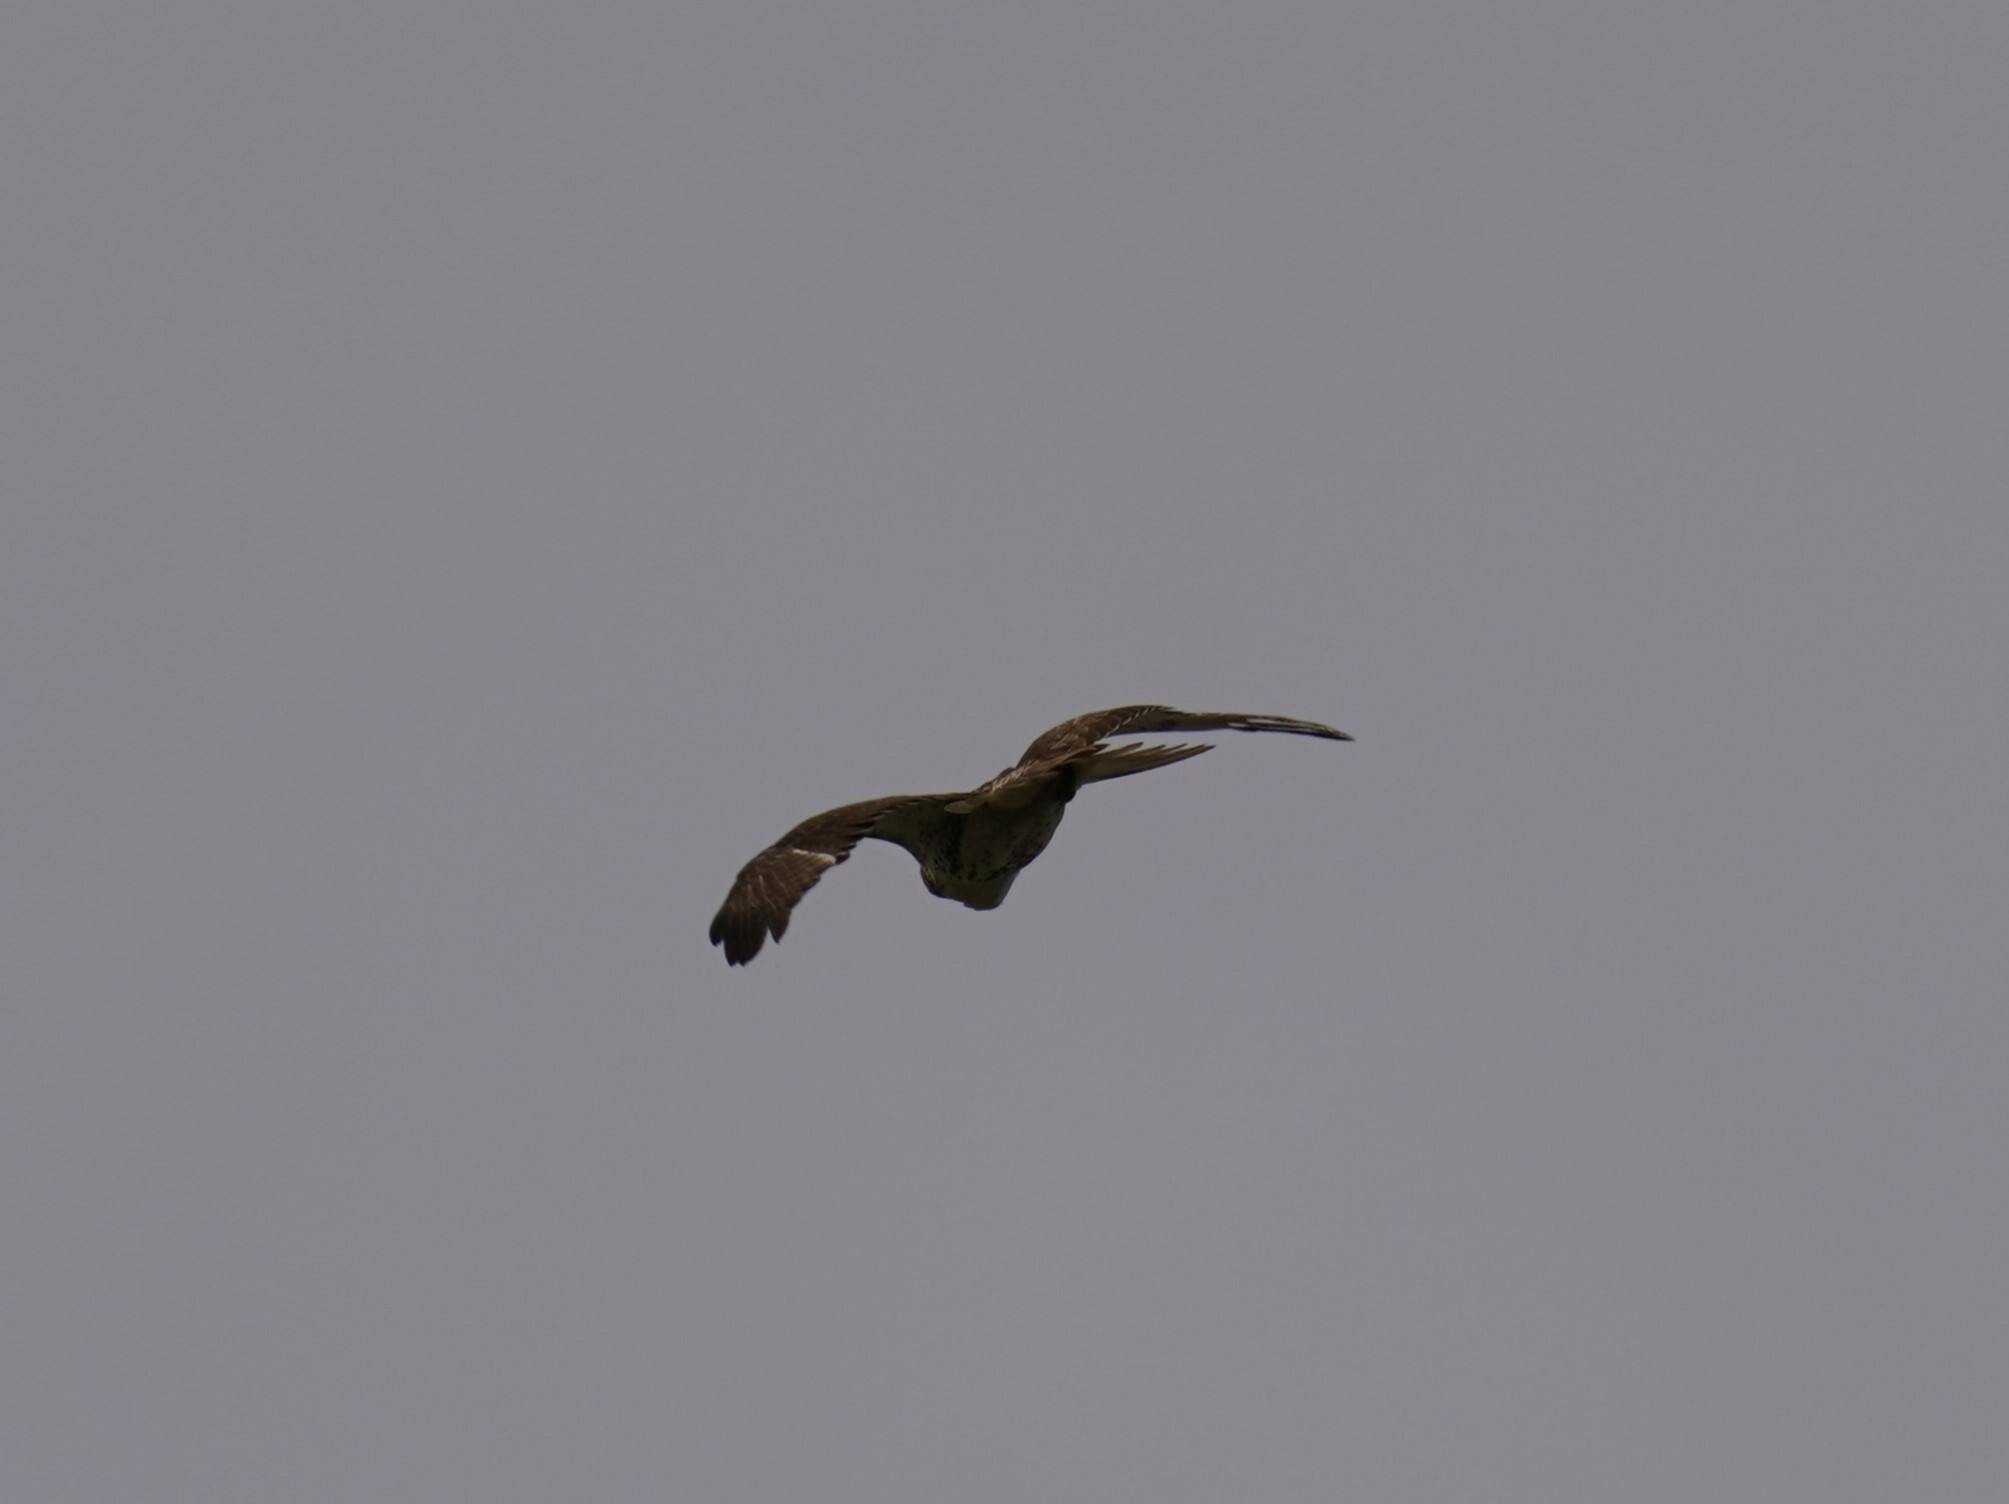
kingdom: Animalia
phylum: Chordata
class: Aves
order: Accipitriformes
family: Accipitridae
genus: Buteo
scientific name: Buteo jamaicensis
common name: Red-tailed hawk
